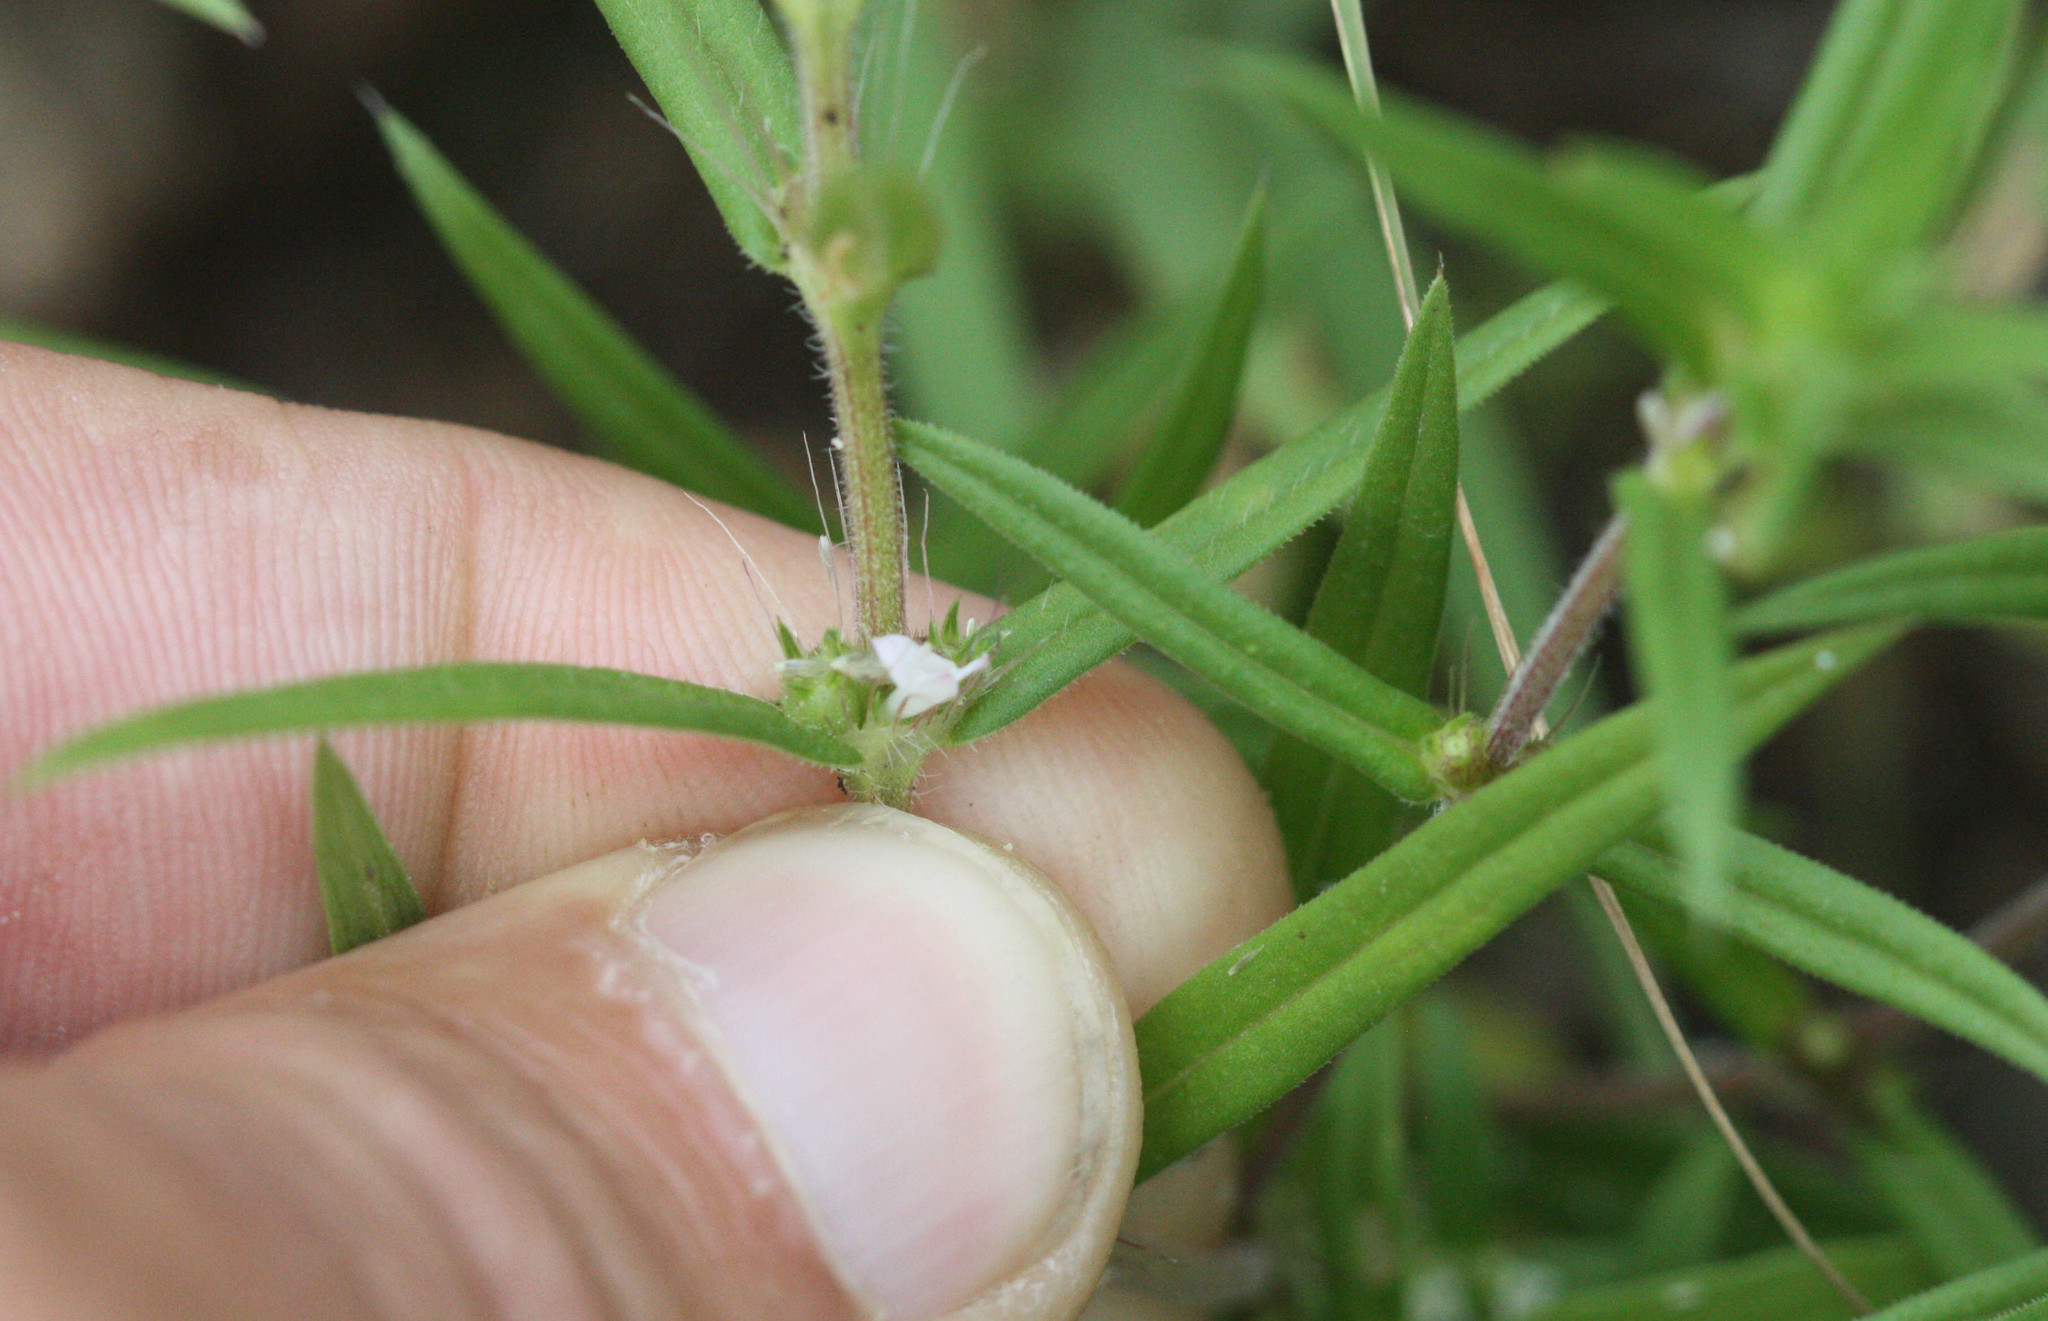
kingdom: Plantae
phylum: Tracheophyta
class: Magnoliopsida
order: Gentianales
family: Rubiaceae
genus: Hexasepalum
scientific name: Hexasepalum teres
